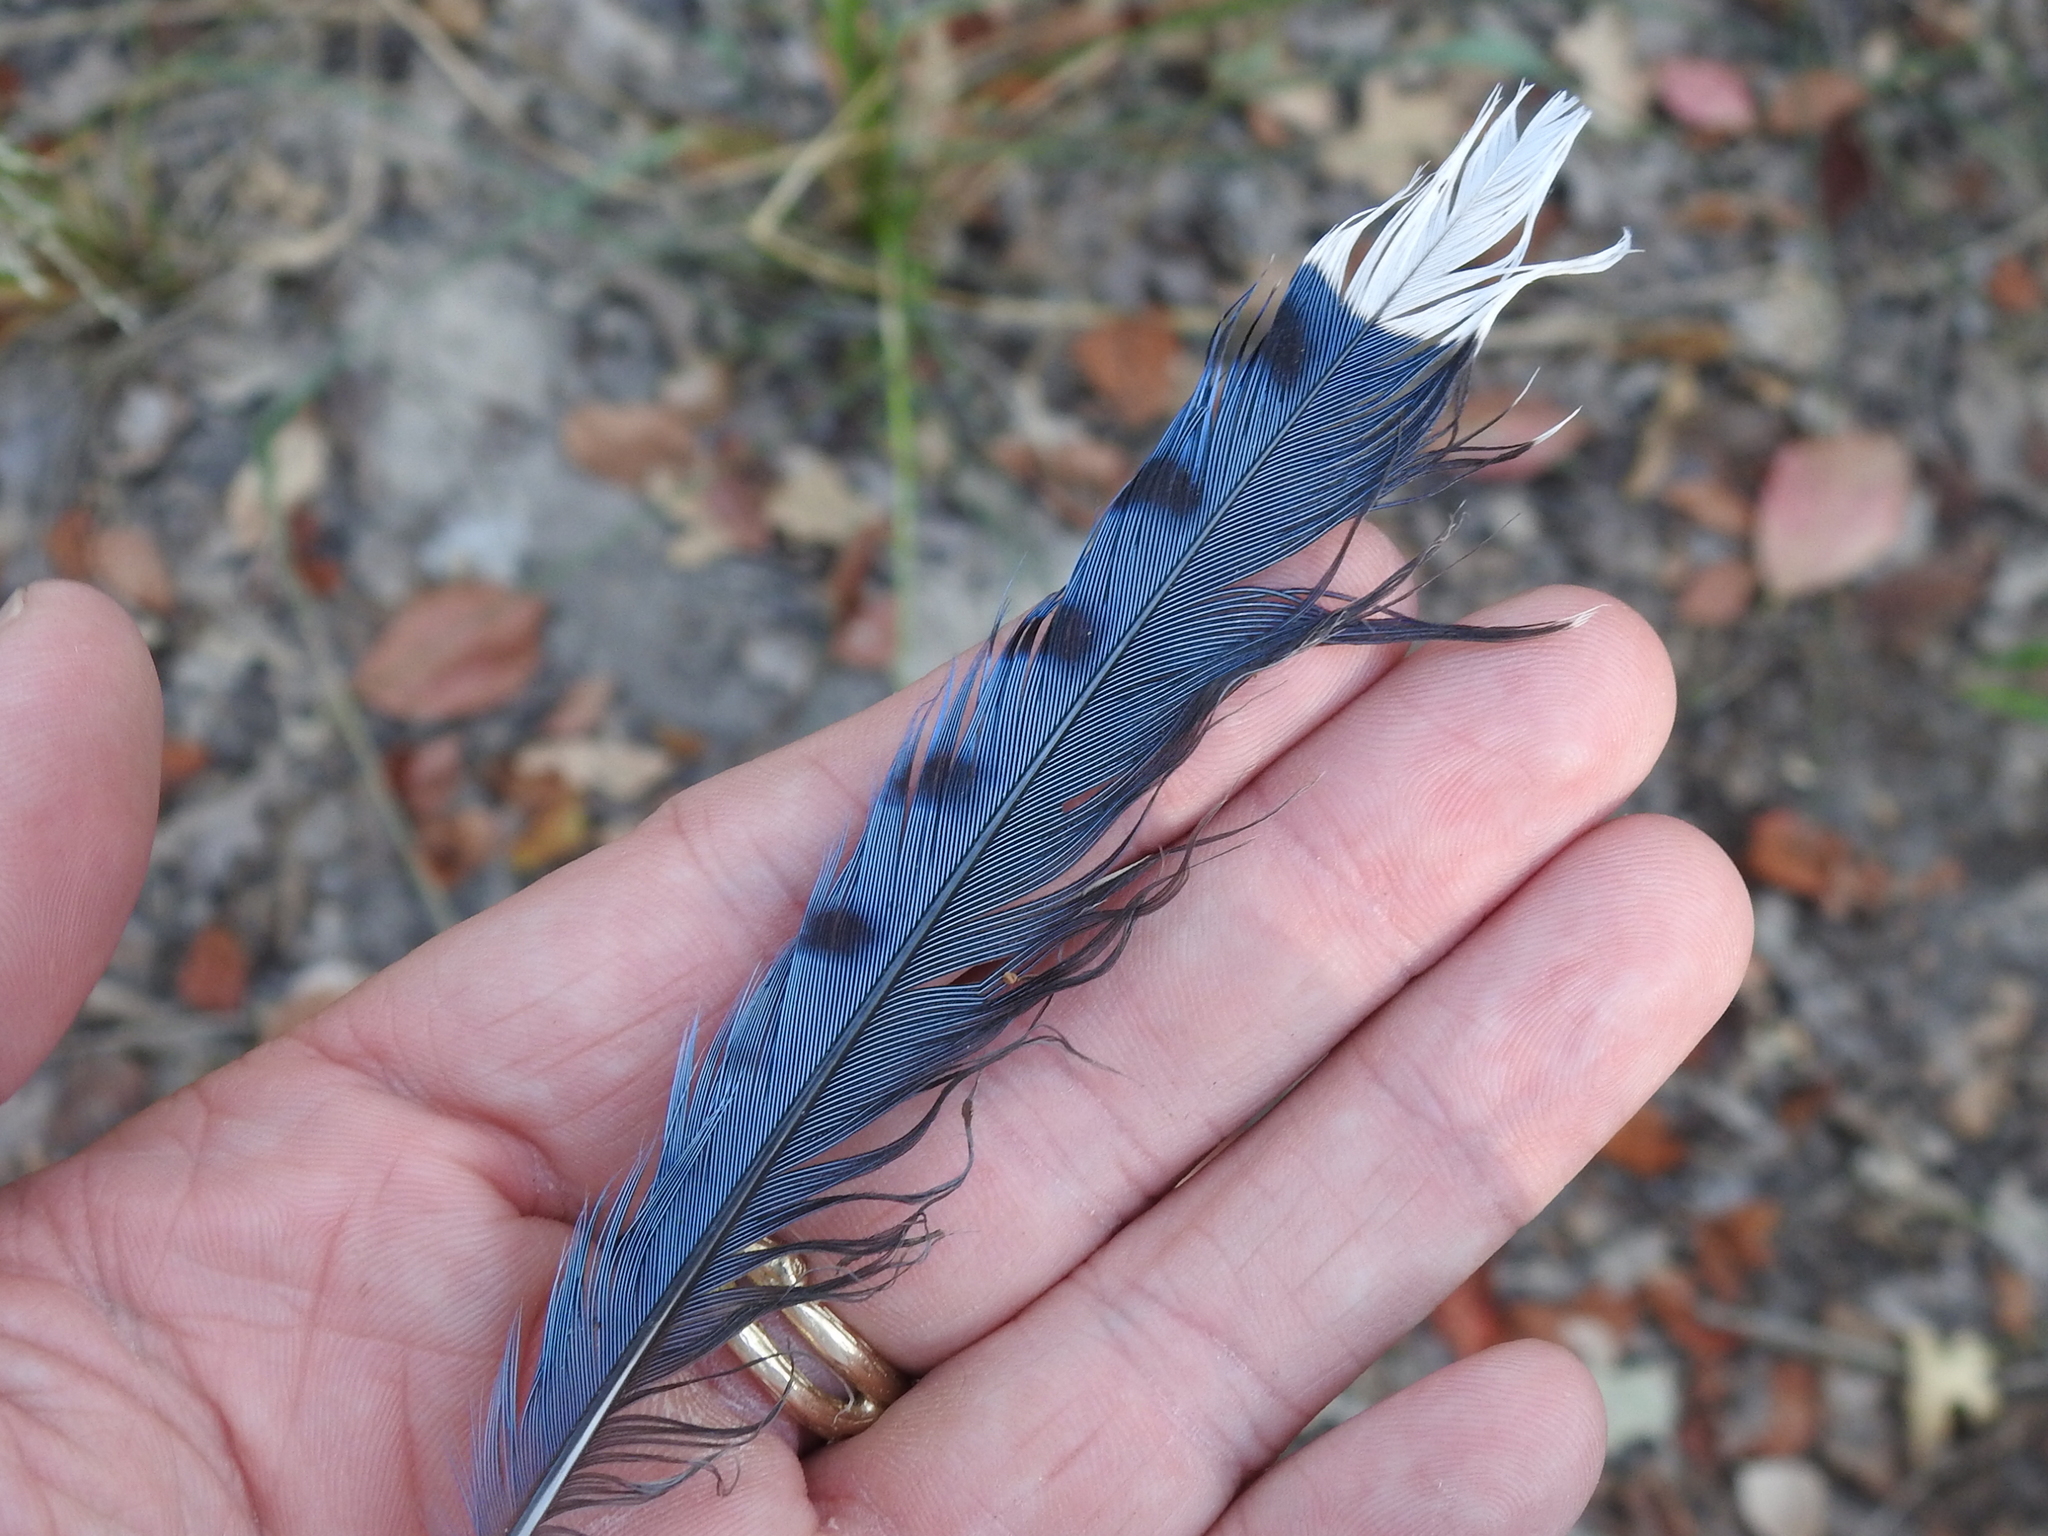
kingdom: Animalia
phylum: Chordata
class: Aves
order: Passeriformes
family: Corvidae
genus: Cyanocitta
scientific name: Cyanocitta cristata
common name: Blue jay
